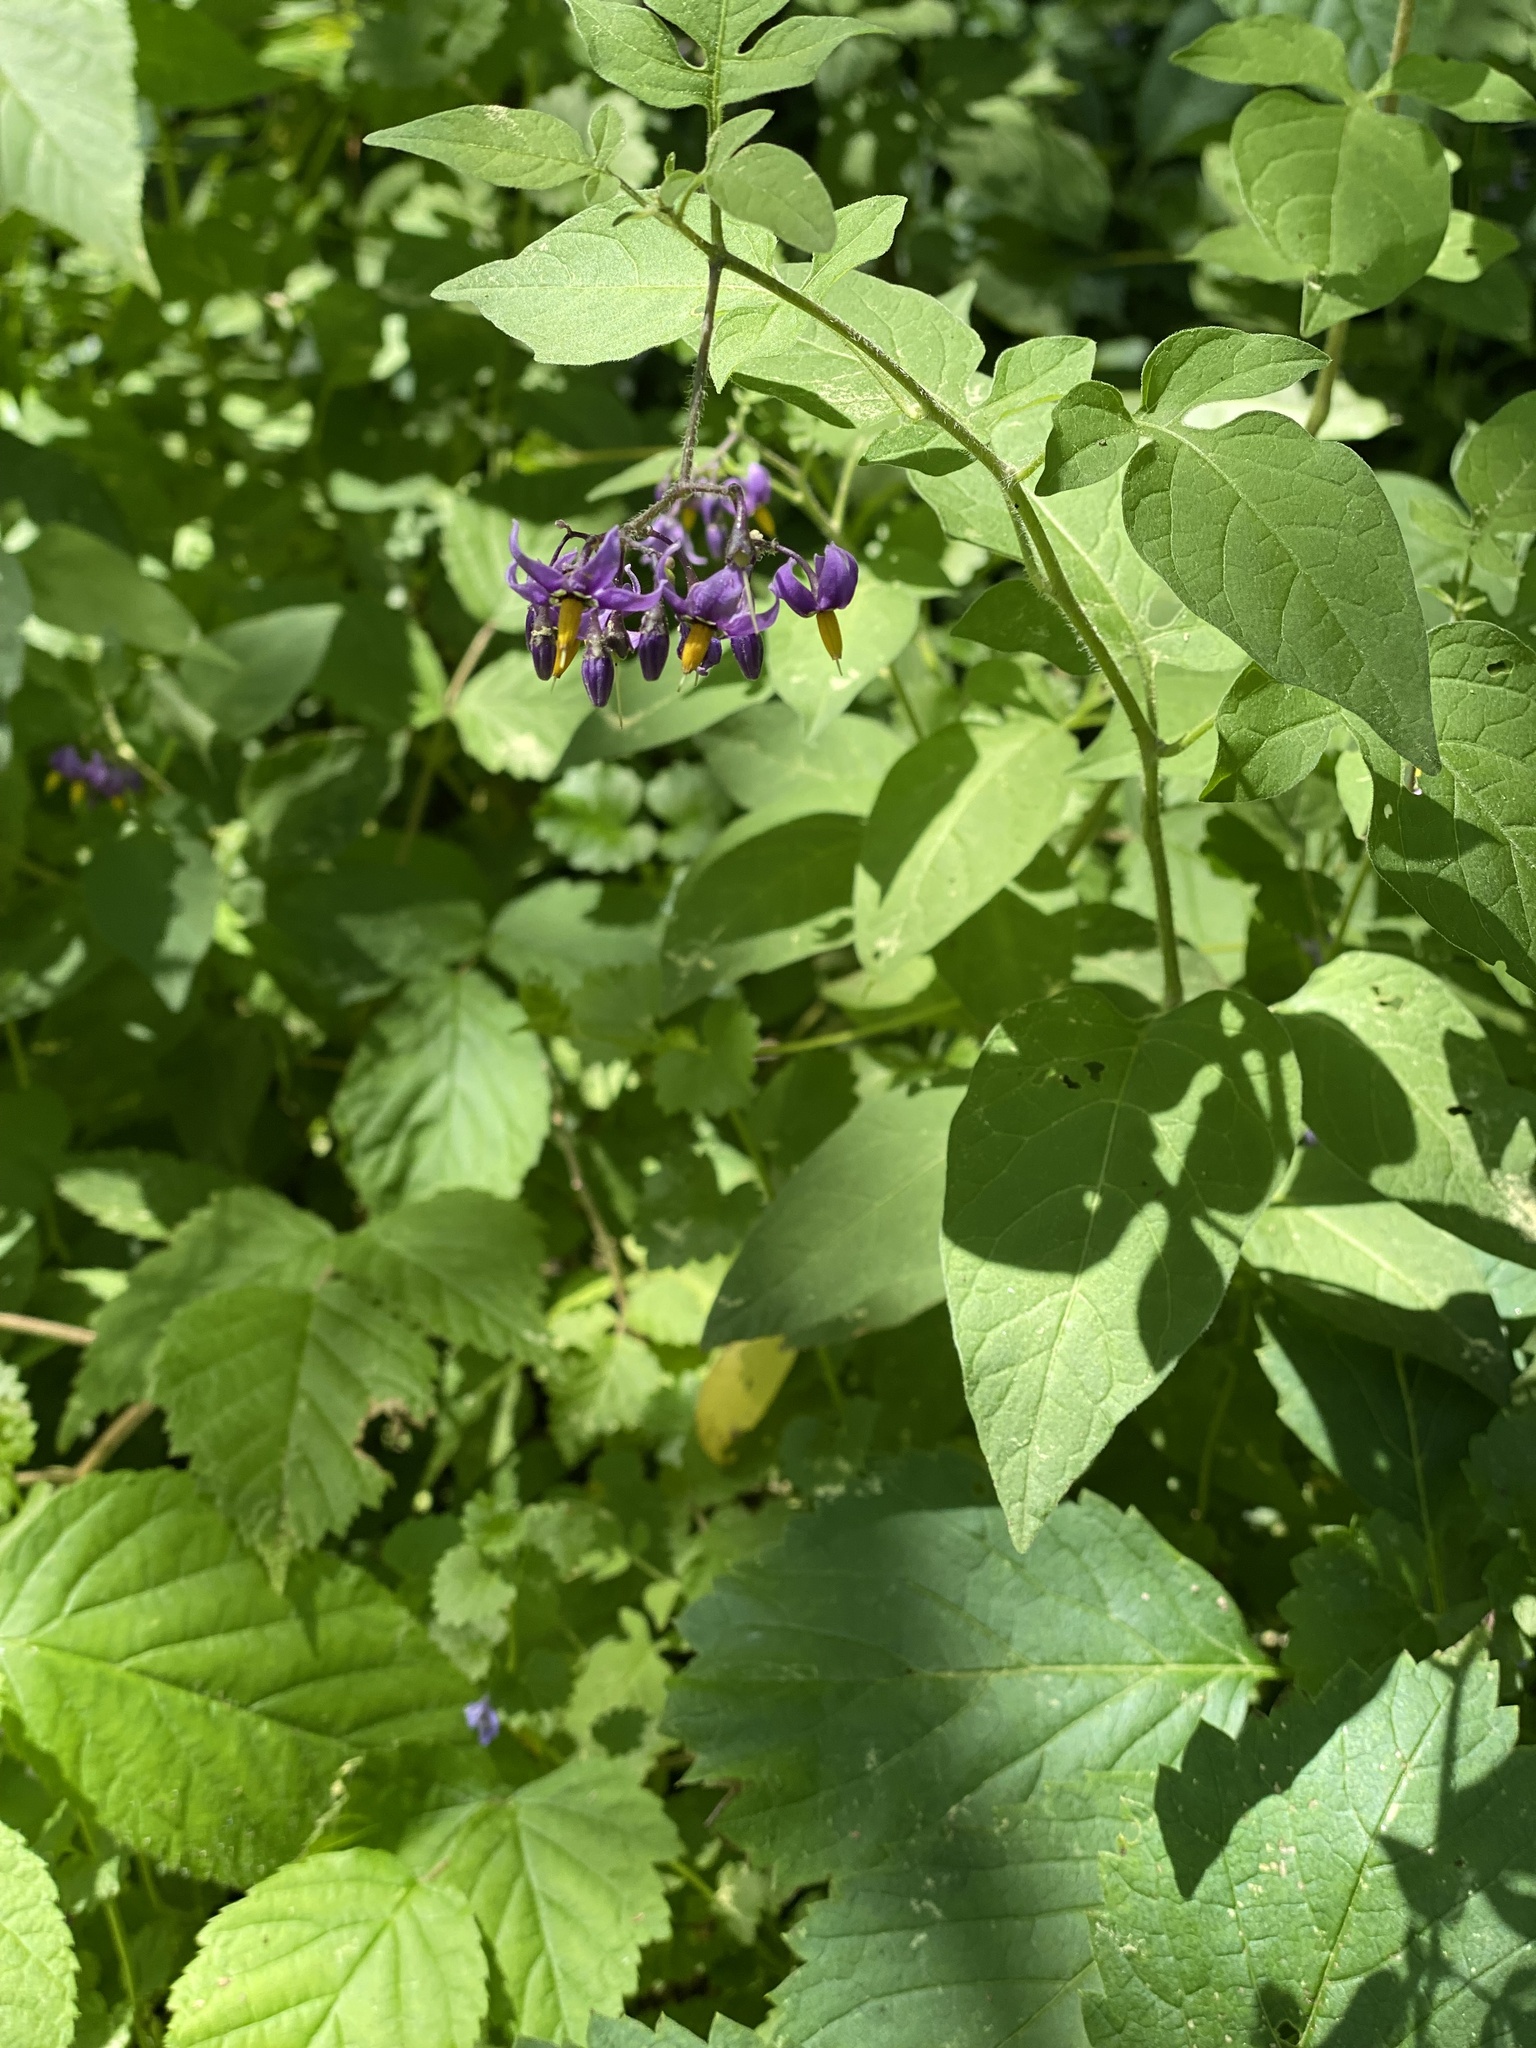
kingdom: Plantae
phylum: Tracheophyta
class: Magnoliopsida
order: Solanales
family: Solanaceae
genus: Solanum
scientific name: Solanum dulcamara
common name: Climbing nightshade
